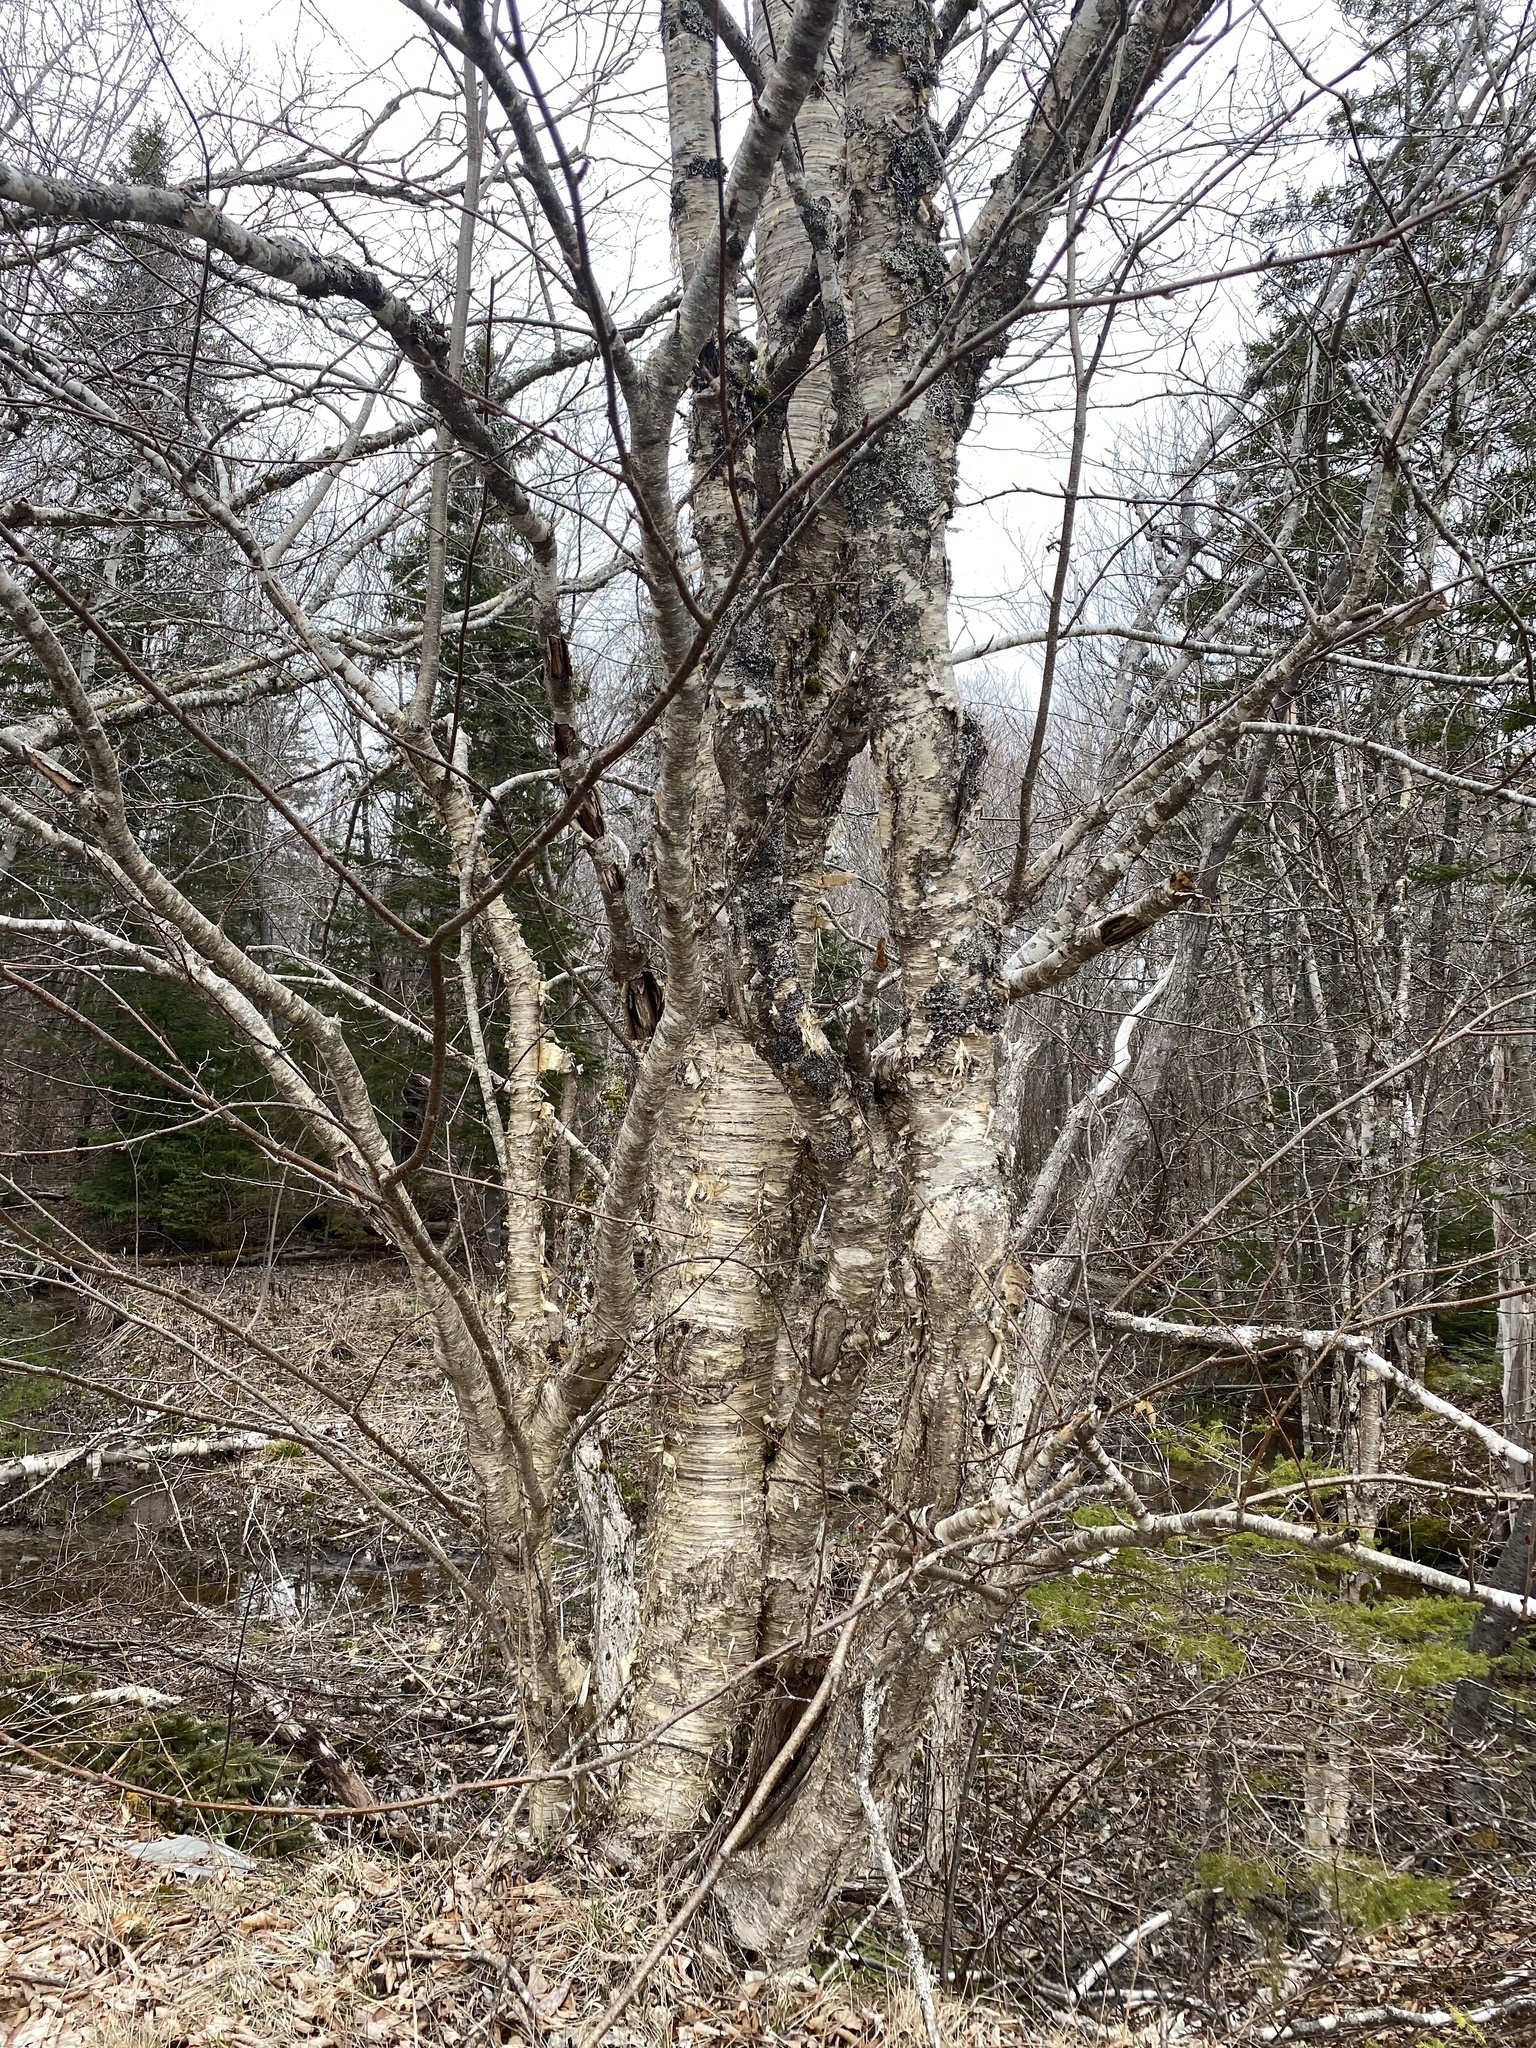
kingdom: Plantae
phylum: Tracheophyta
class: Magnoliopsida
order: Fagales
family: Betulaceae
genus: Betula
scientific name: Betula alleghaniensis
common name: Yellow birch
